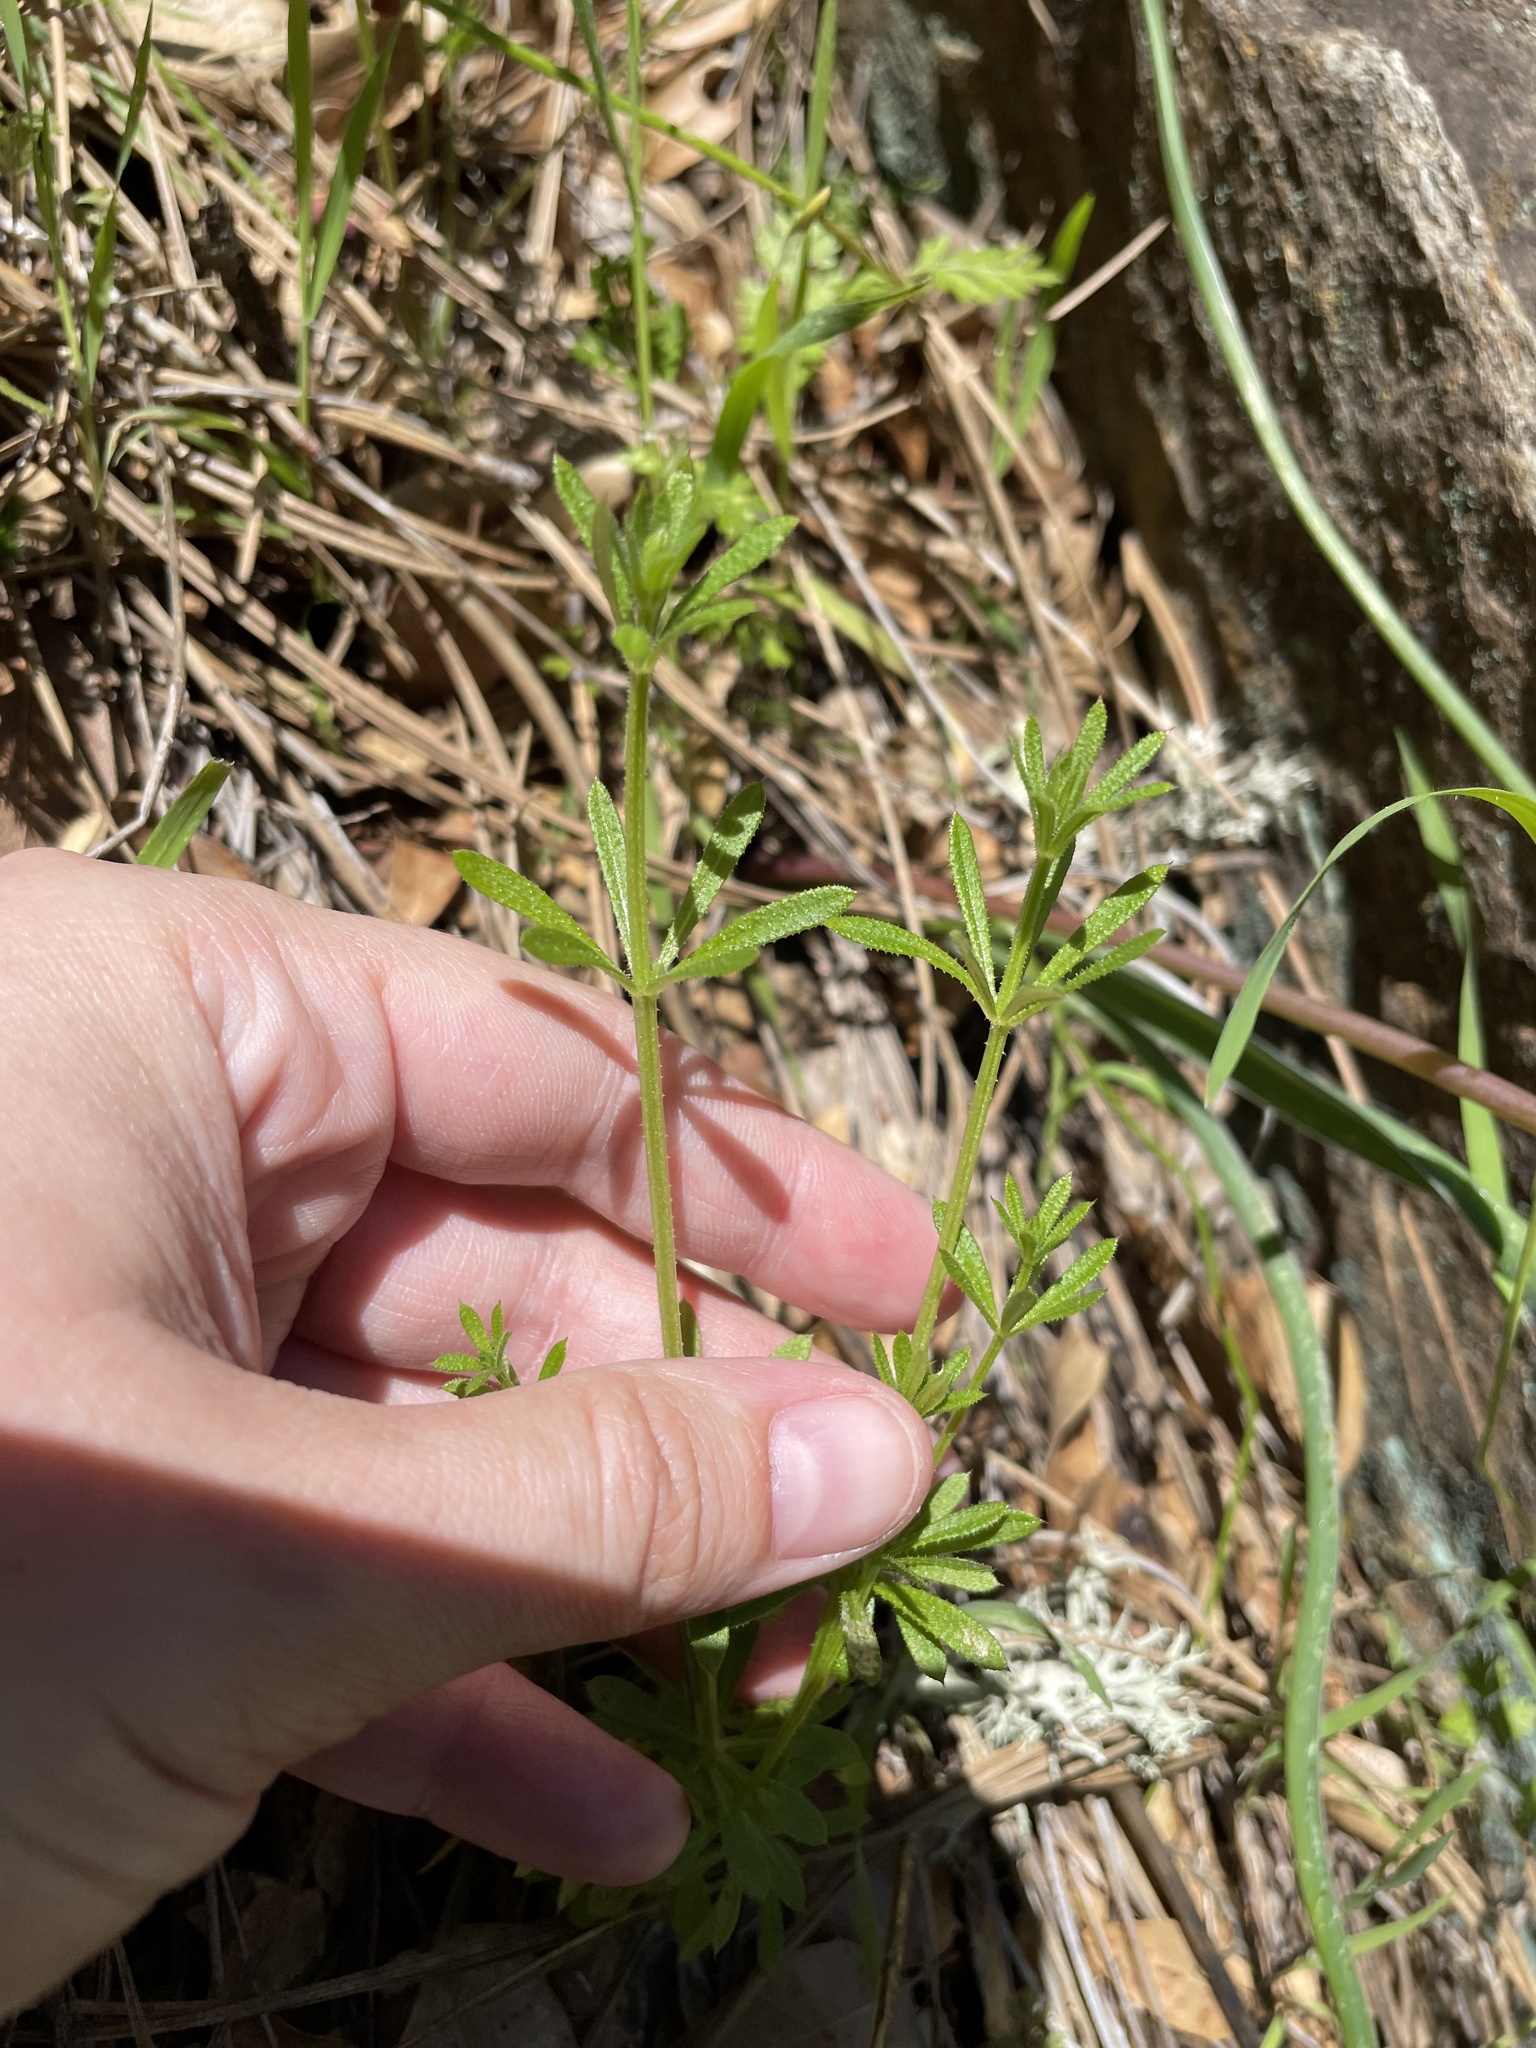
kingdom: Plantae
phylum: Tracheophyta
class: Magnoliopsida
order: Gentianales
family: Rubiaceae
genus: Galium
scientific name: Galium aparine
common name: Cleavers
